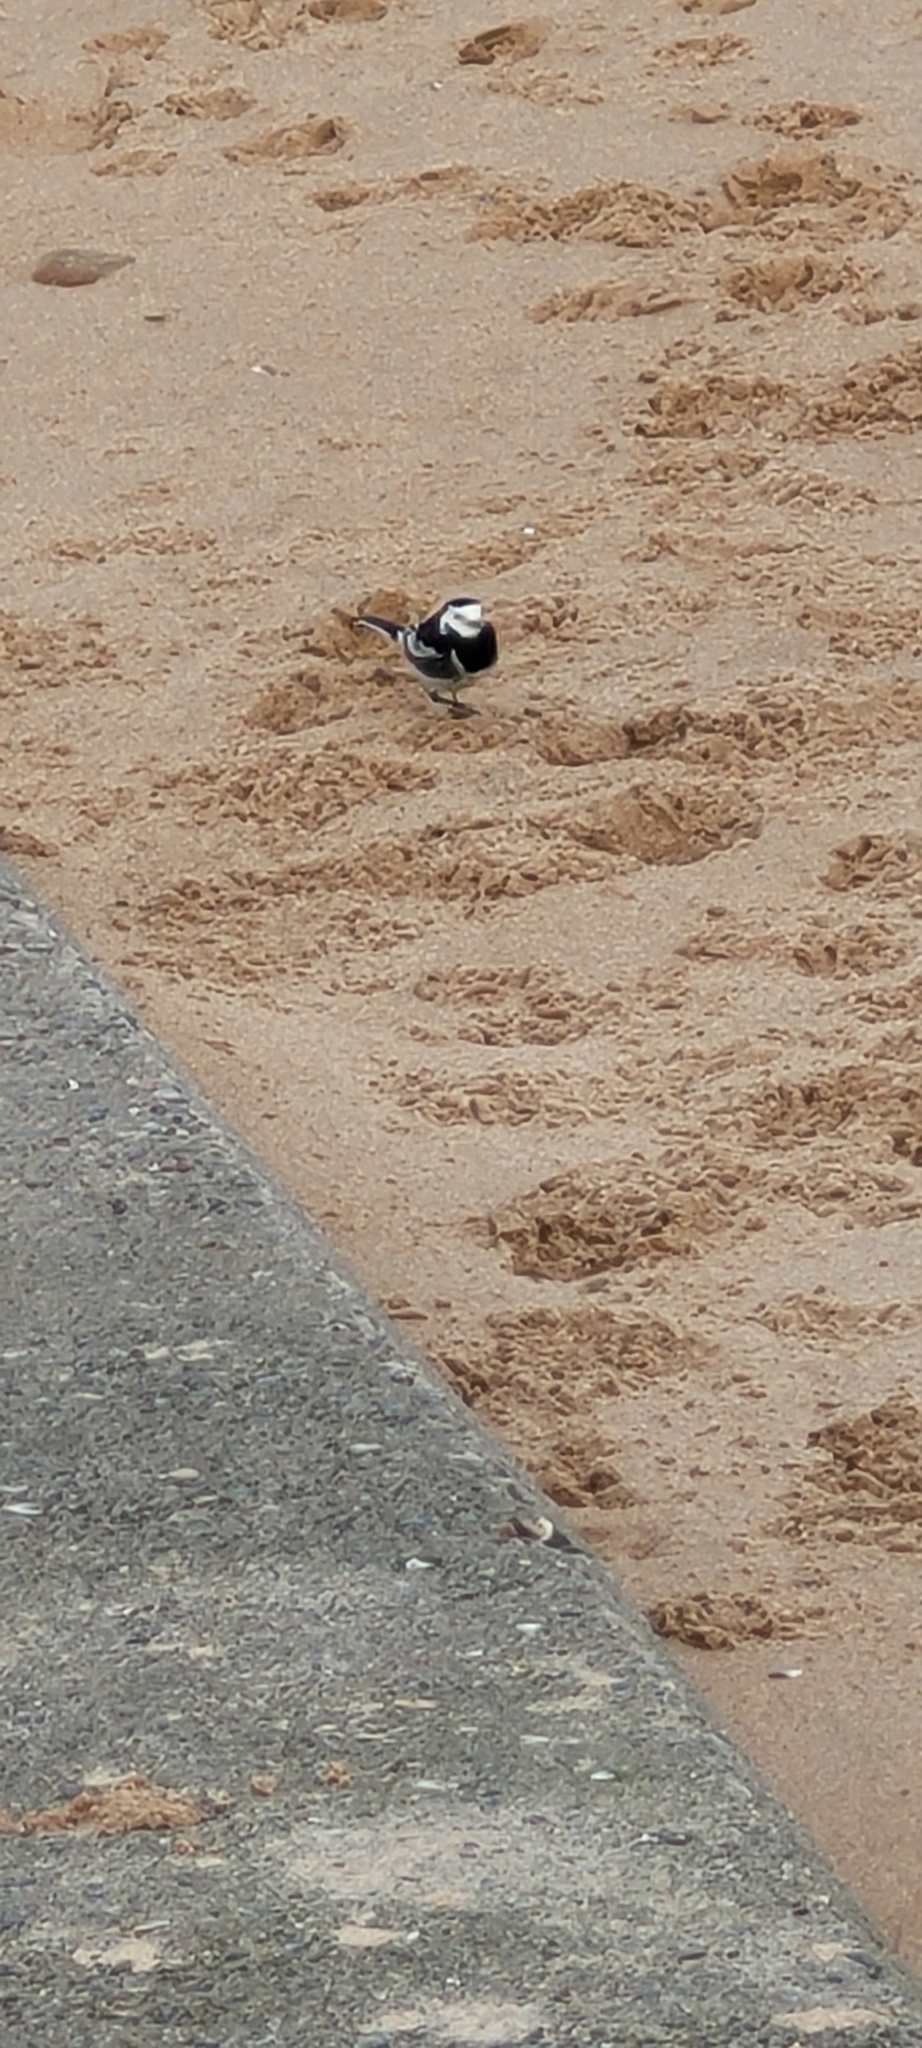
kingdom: Animalia
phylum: Chordata
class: Aves
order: Passeriformes
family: Motacillidae
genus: Motacilla
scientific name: Motacilla alba
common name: White wagtail
